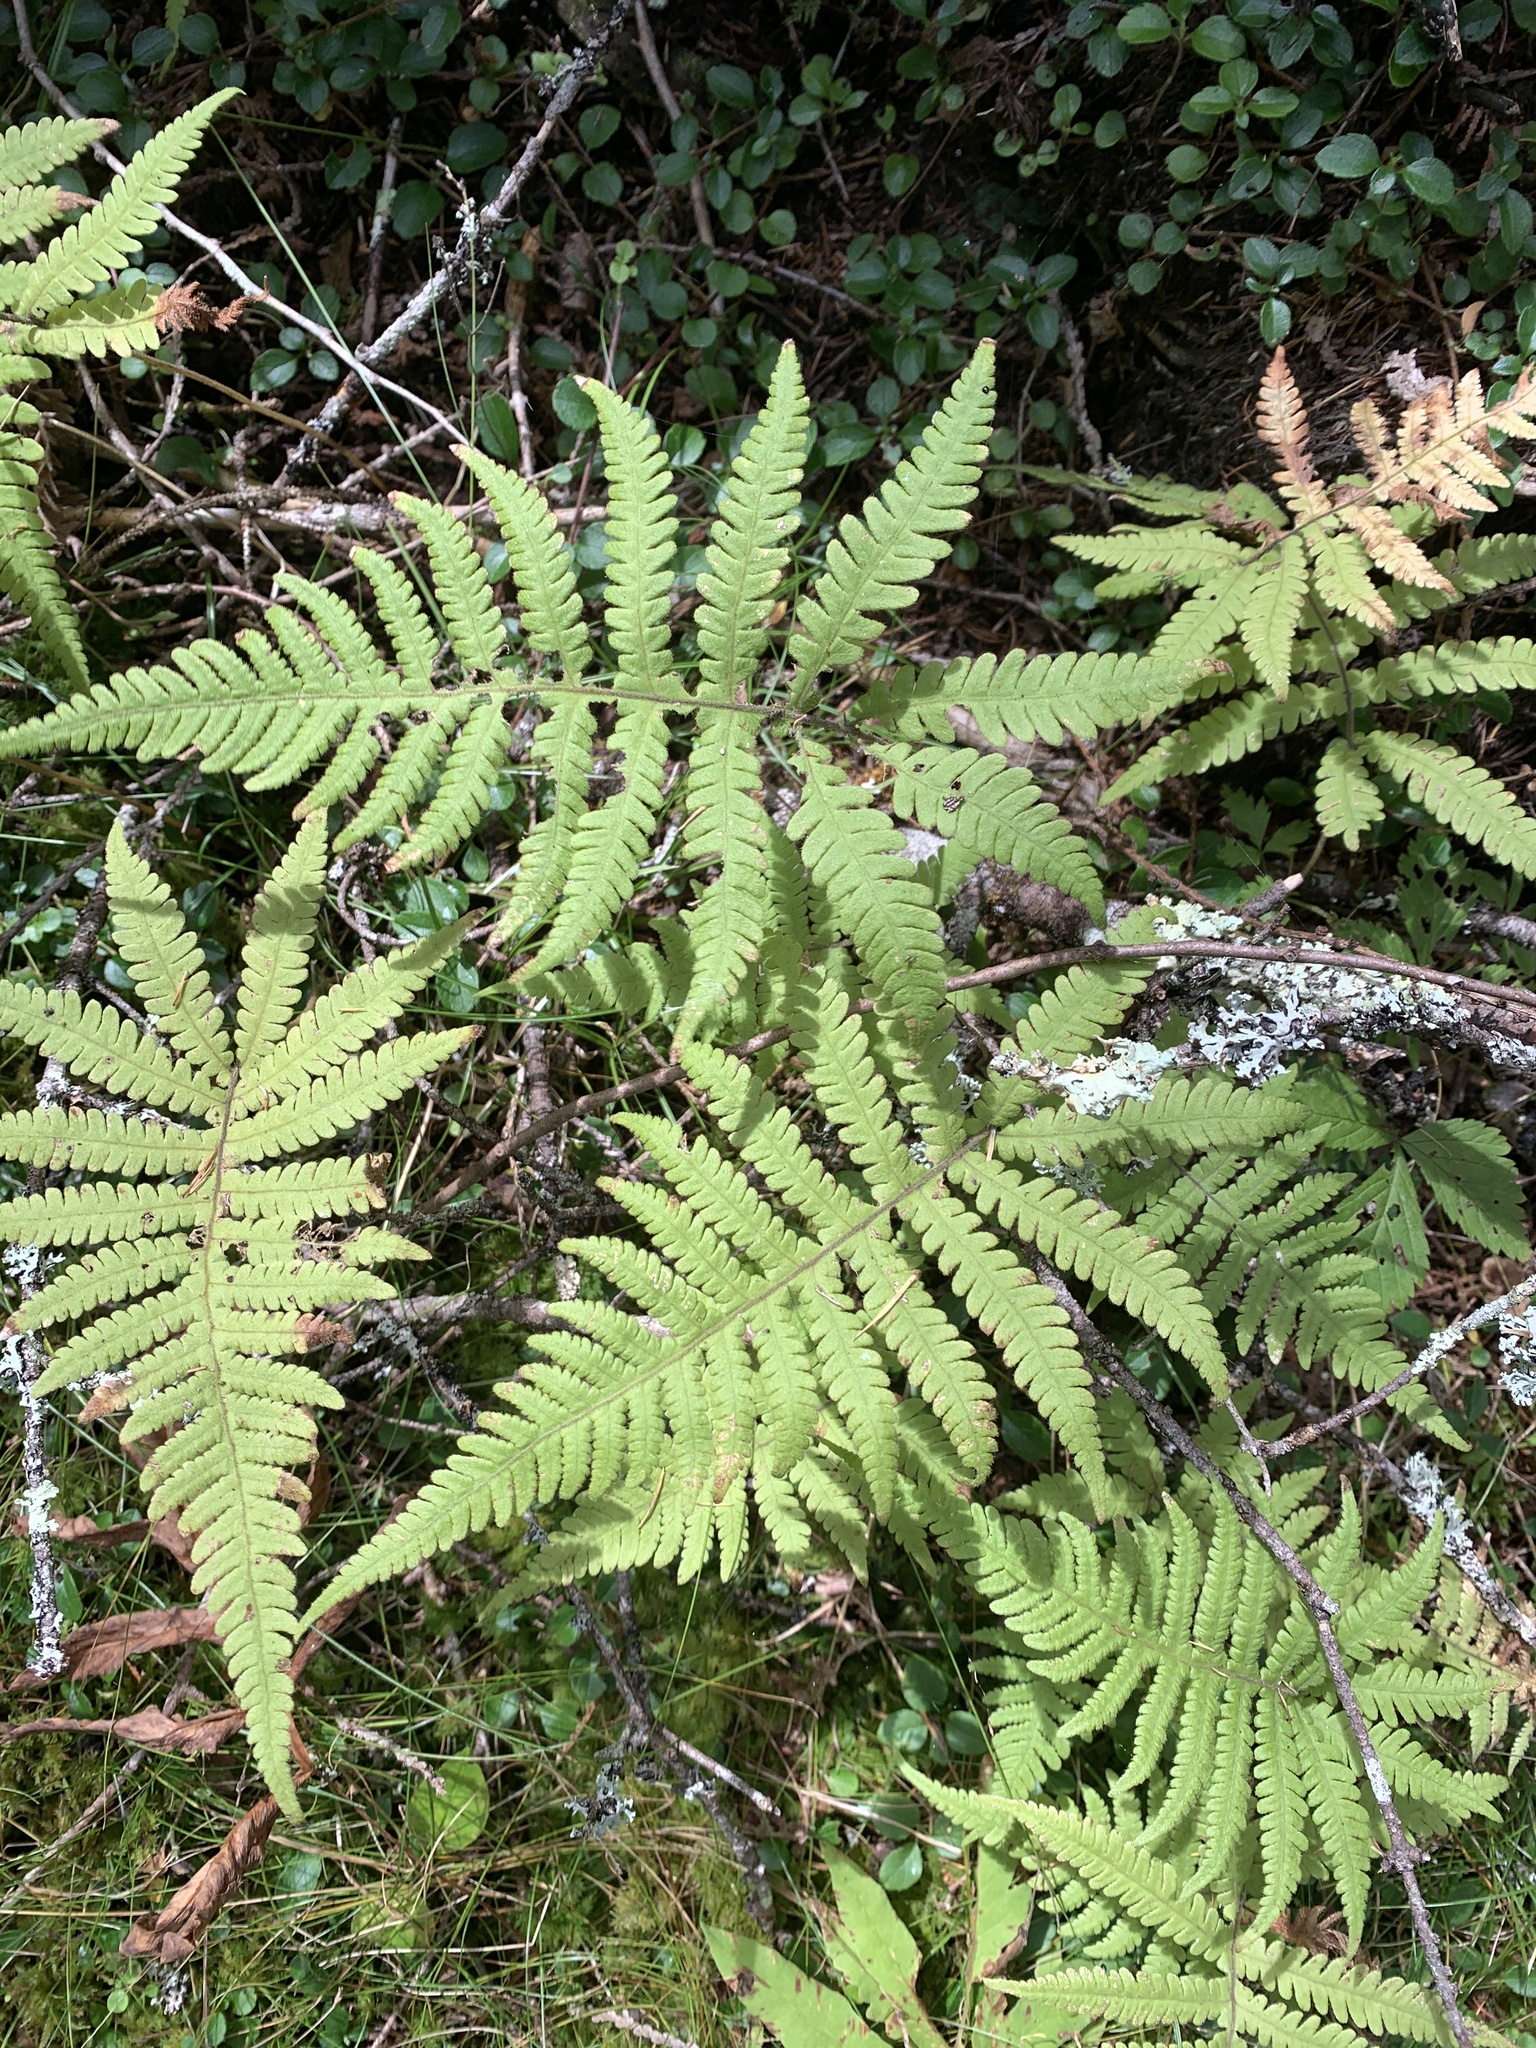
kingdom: Plantae
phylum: Tracheophyta
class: Polypodiopsida
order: Polypodiales
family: Thelypteridaceae
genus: Phegopteris
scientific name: Phegopteris connectilis
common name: Beech fern
